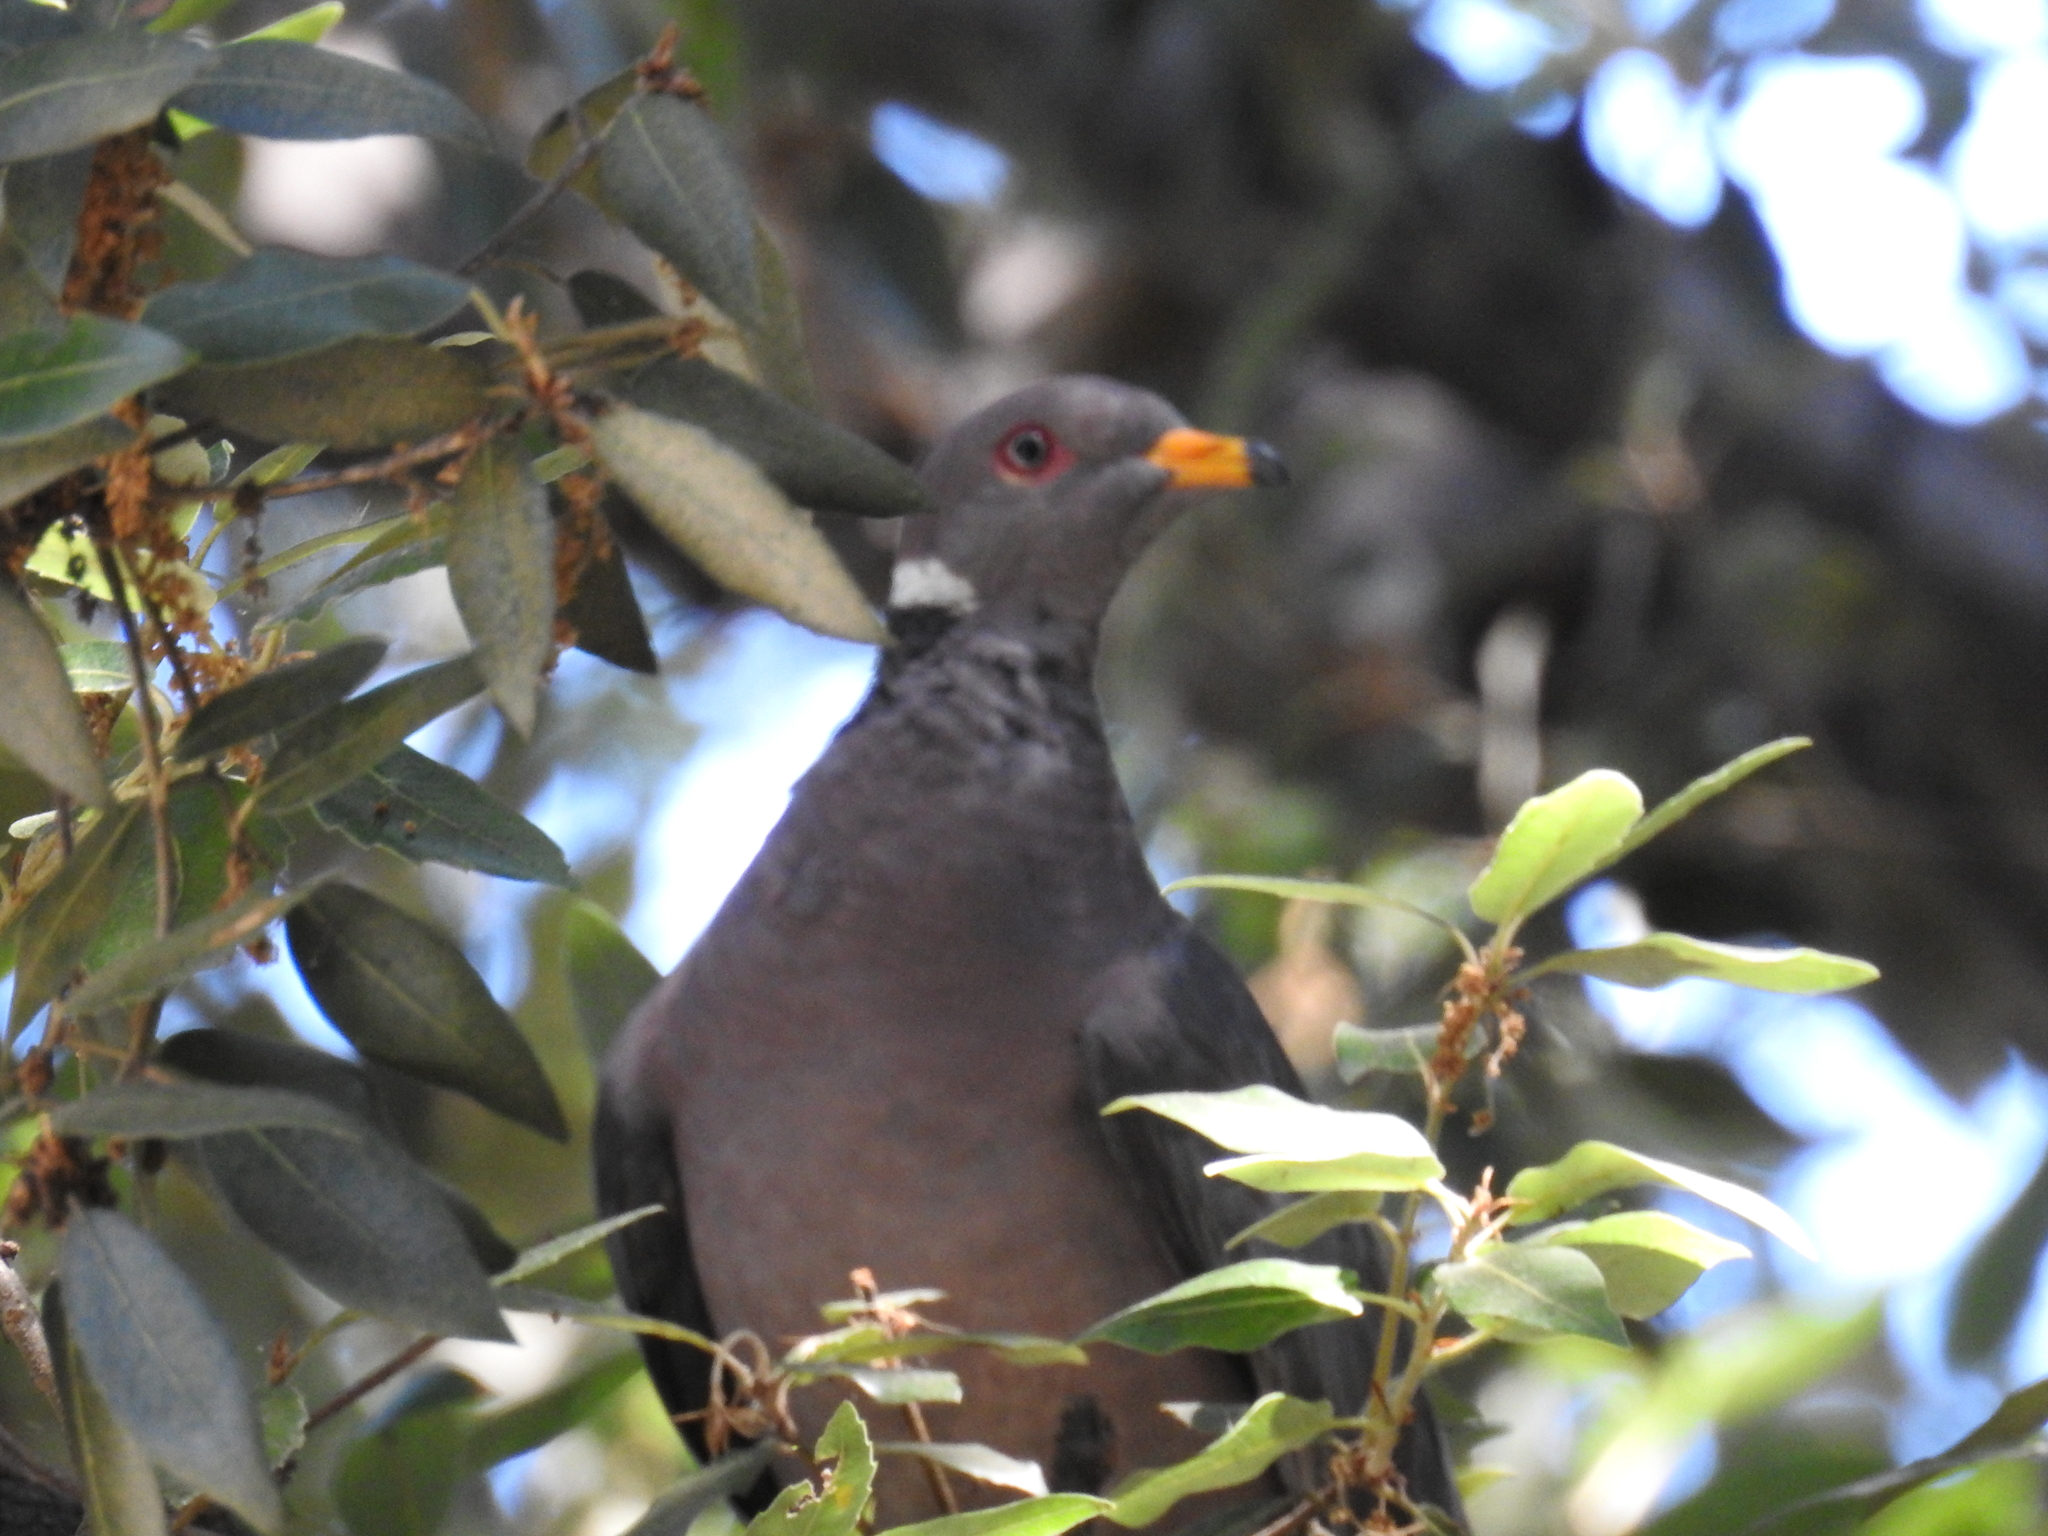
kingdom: Animalia
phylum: Chordata
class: Aves
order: Columbiformes
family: Columbidae
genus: Patagioenas
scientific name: Patagioenas fasciata
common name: Band-tailed pigeon
